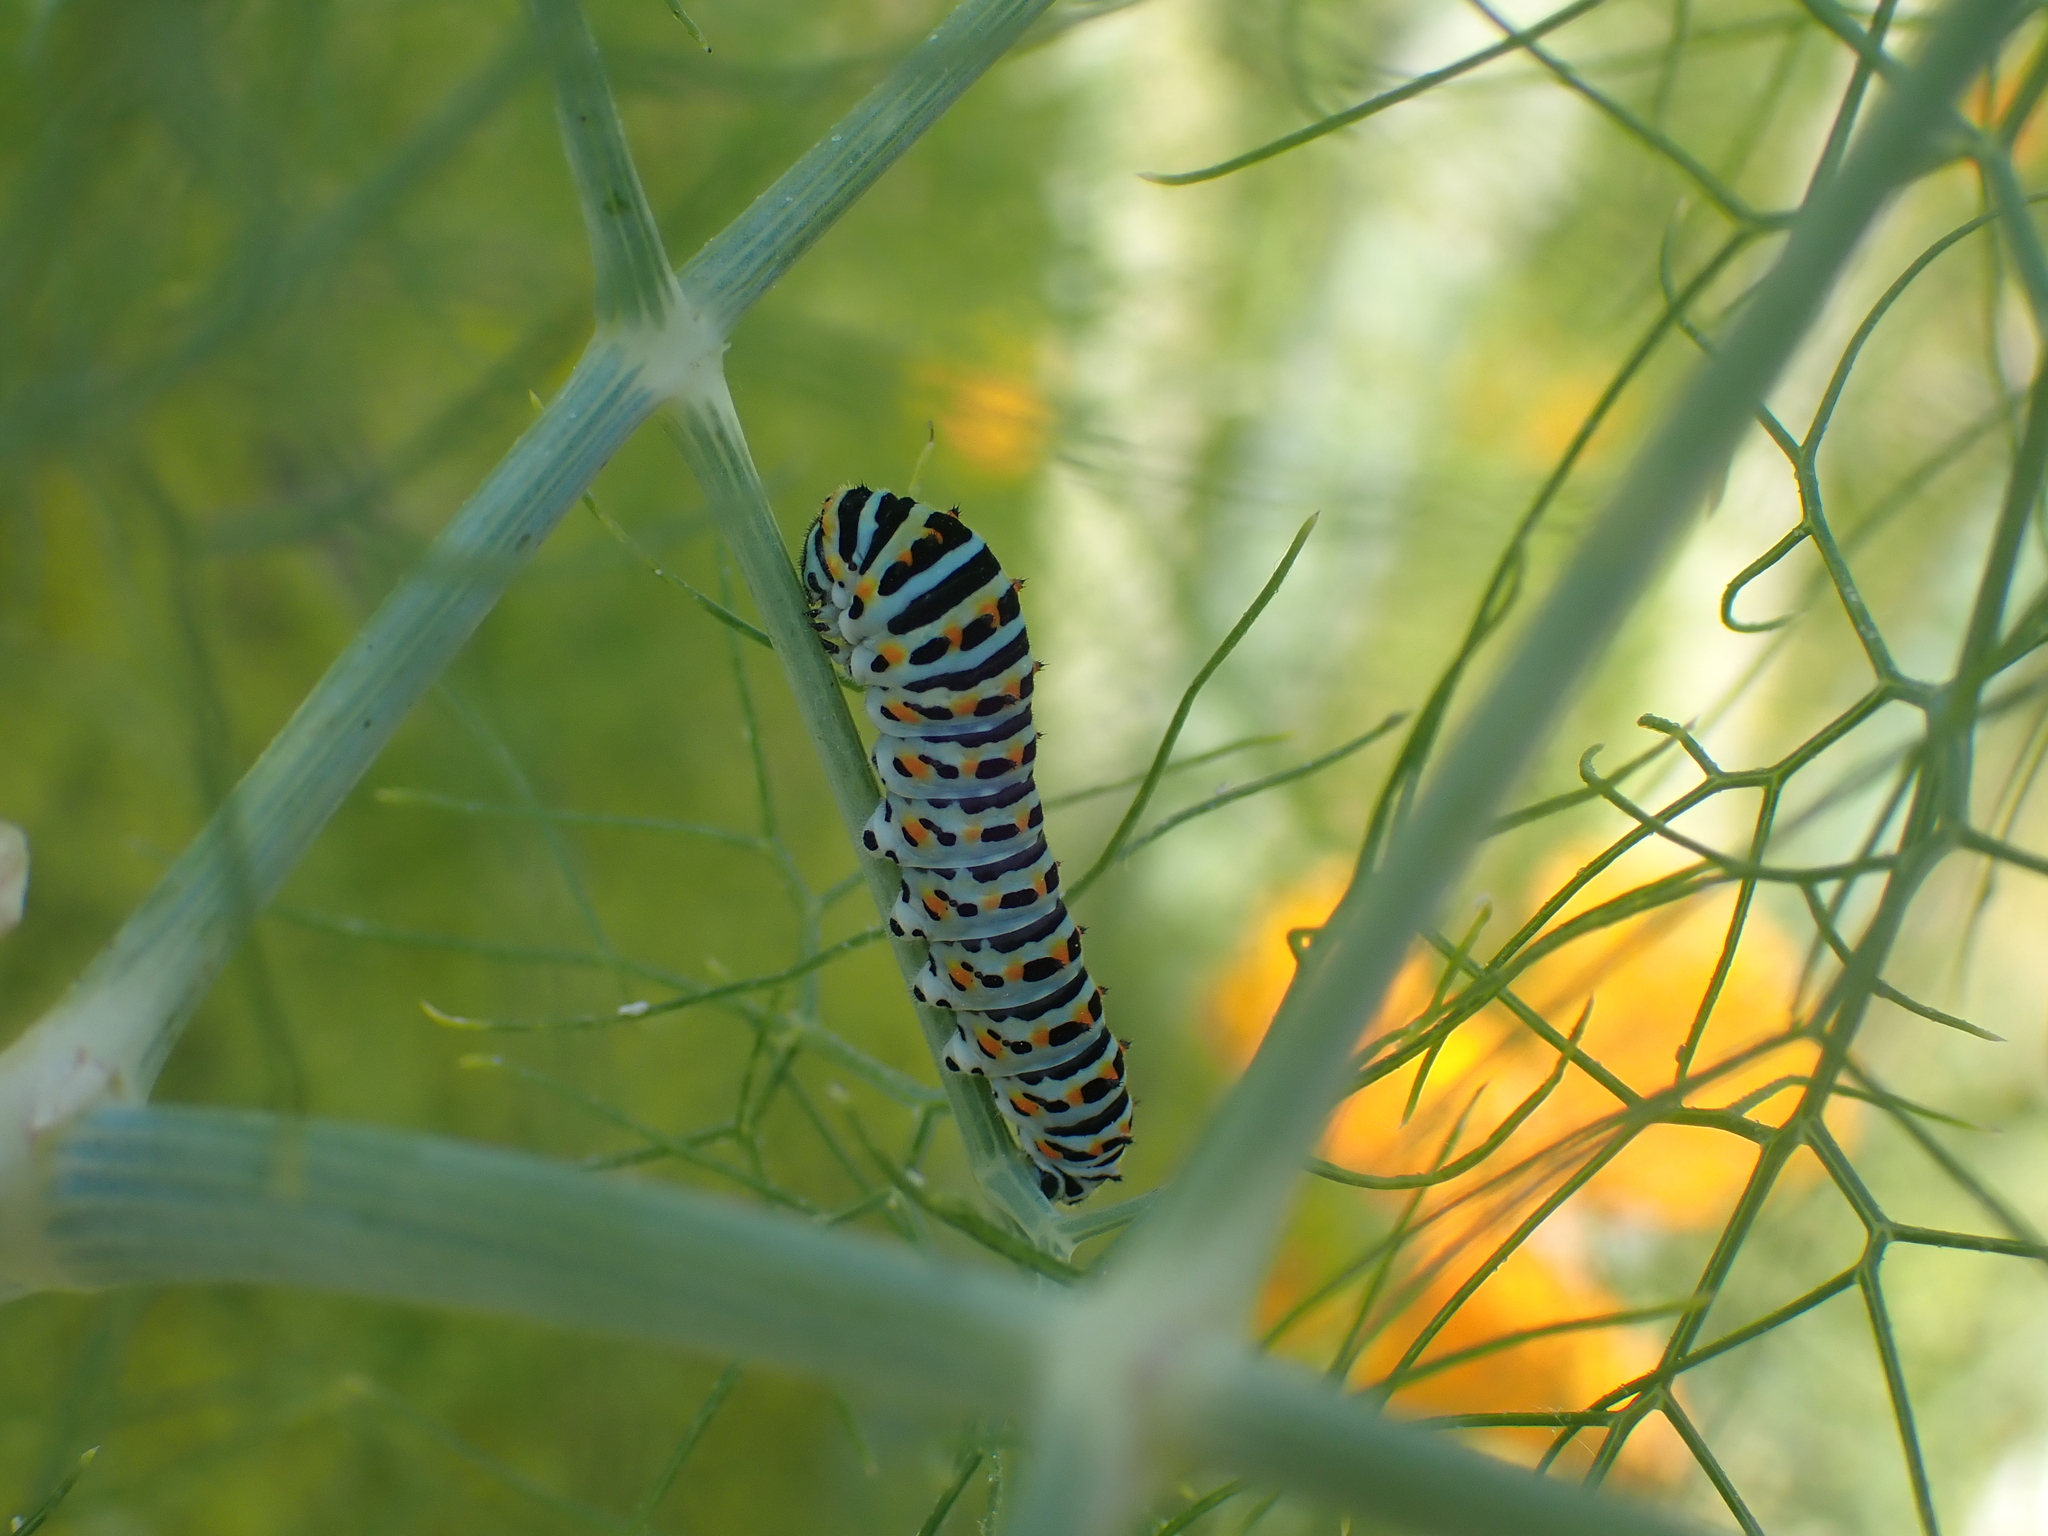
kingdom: Animalia
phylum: Arthropoda
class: Insecta
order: Lepidoptera
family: Papilionidae
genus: Papilio
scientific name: Papilio machaon
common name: Swallowtail
